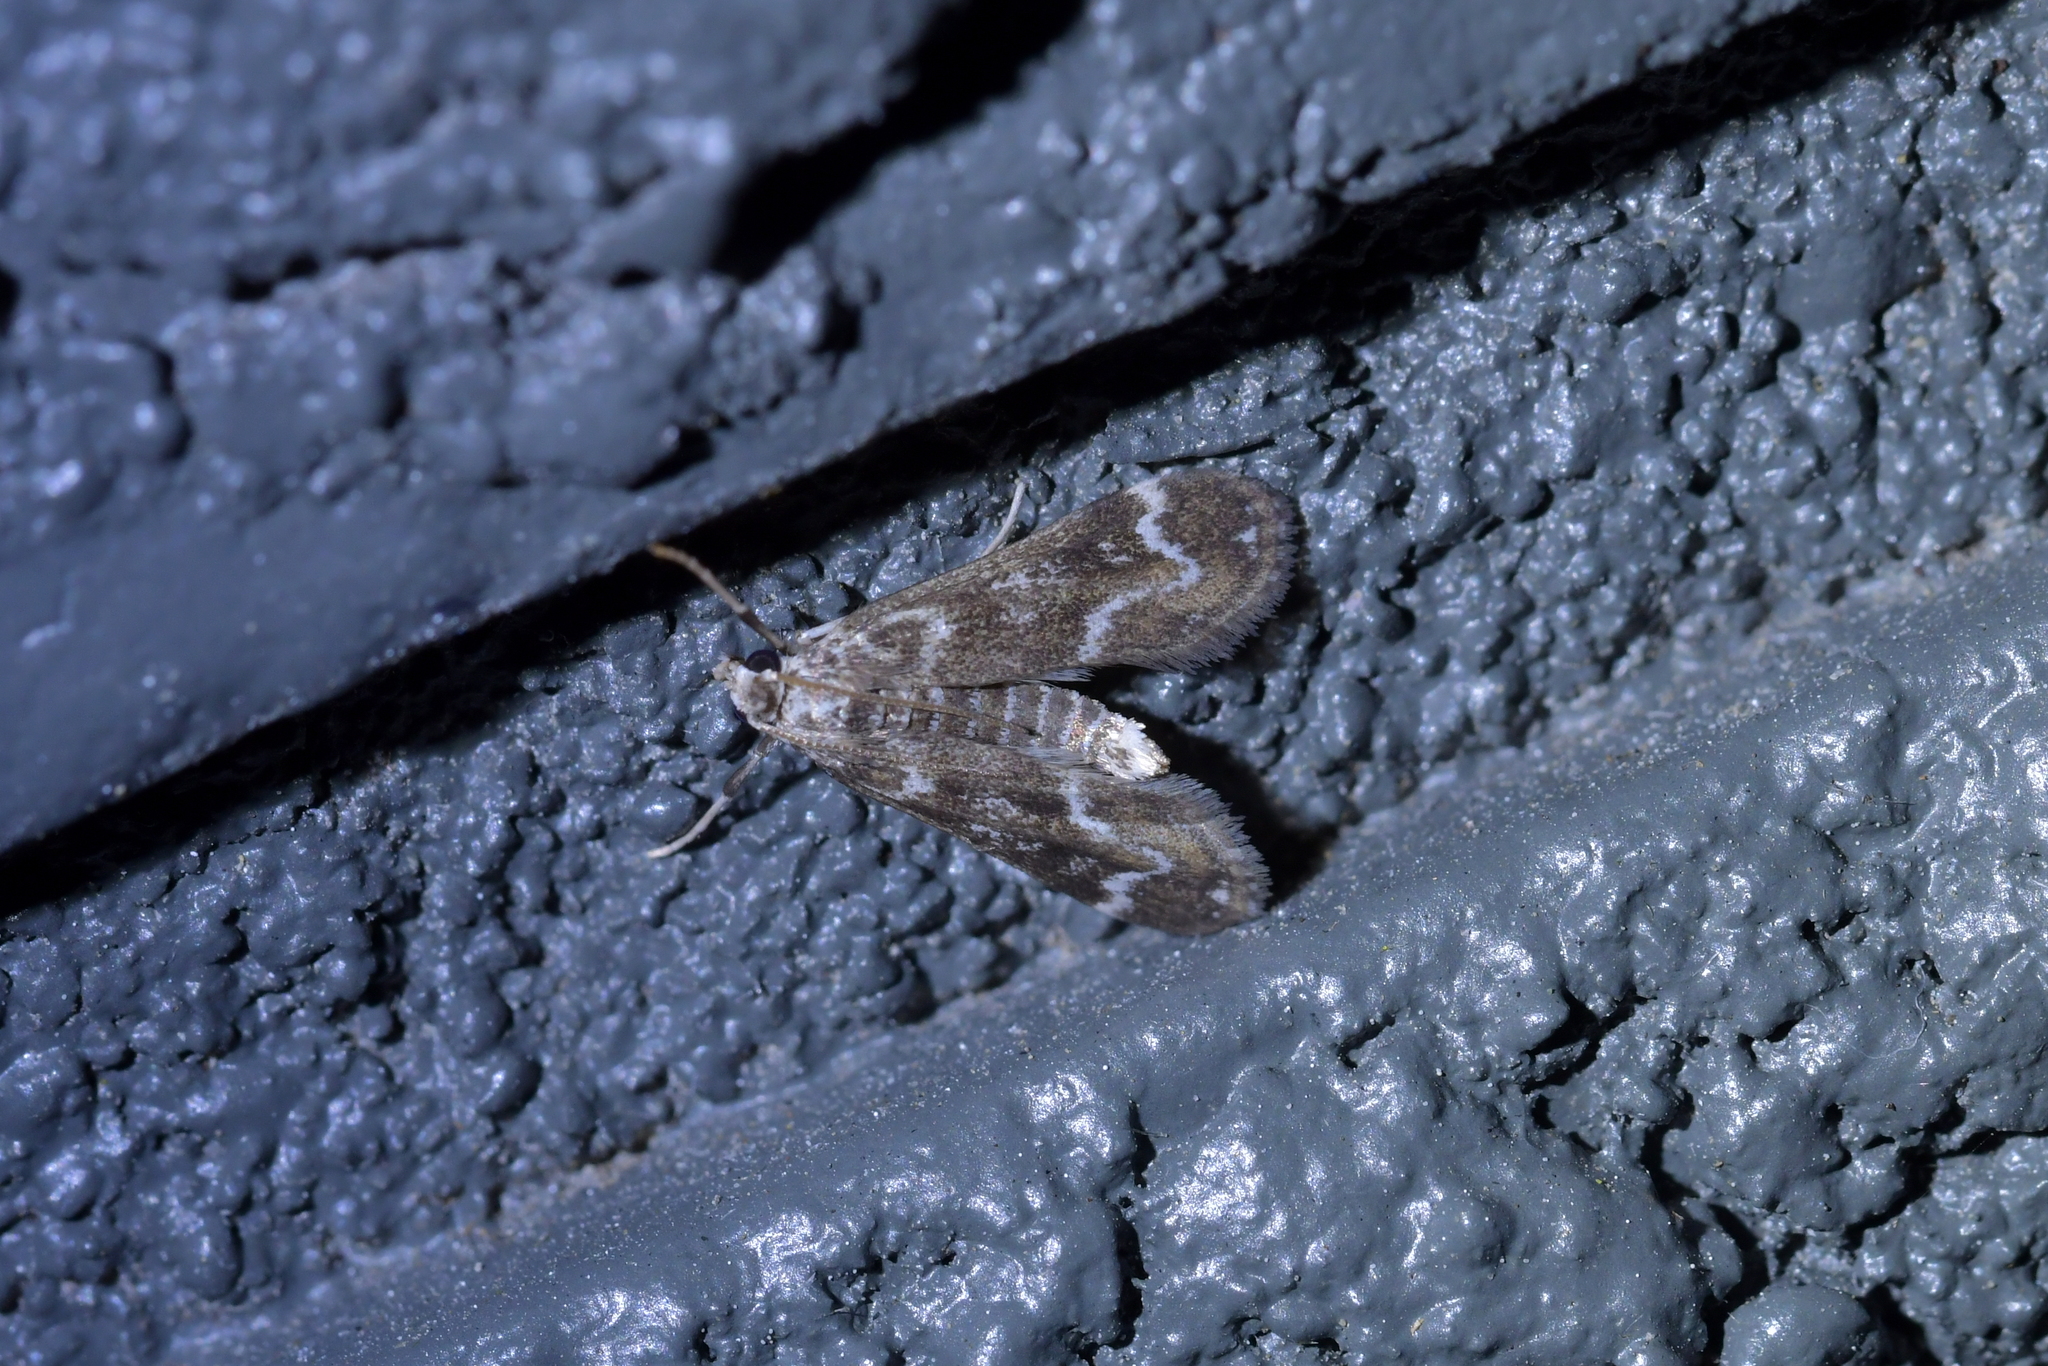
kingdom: Animalia
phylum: Arthropoda
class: Insecta
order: Lepidoptera
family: Crambidae
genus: Hygraula
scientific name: Hygraula nitens
